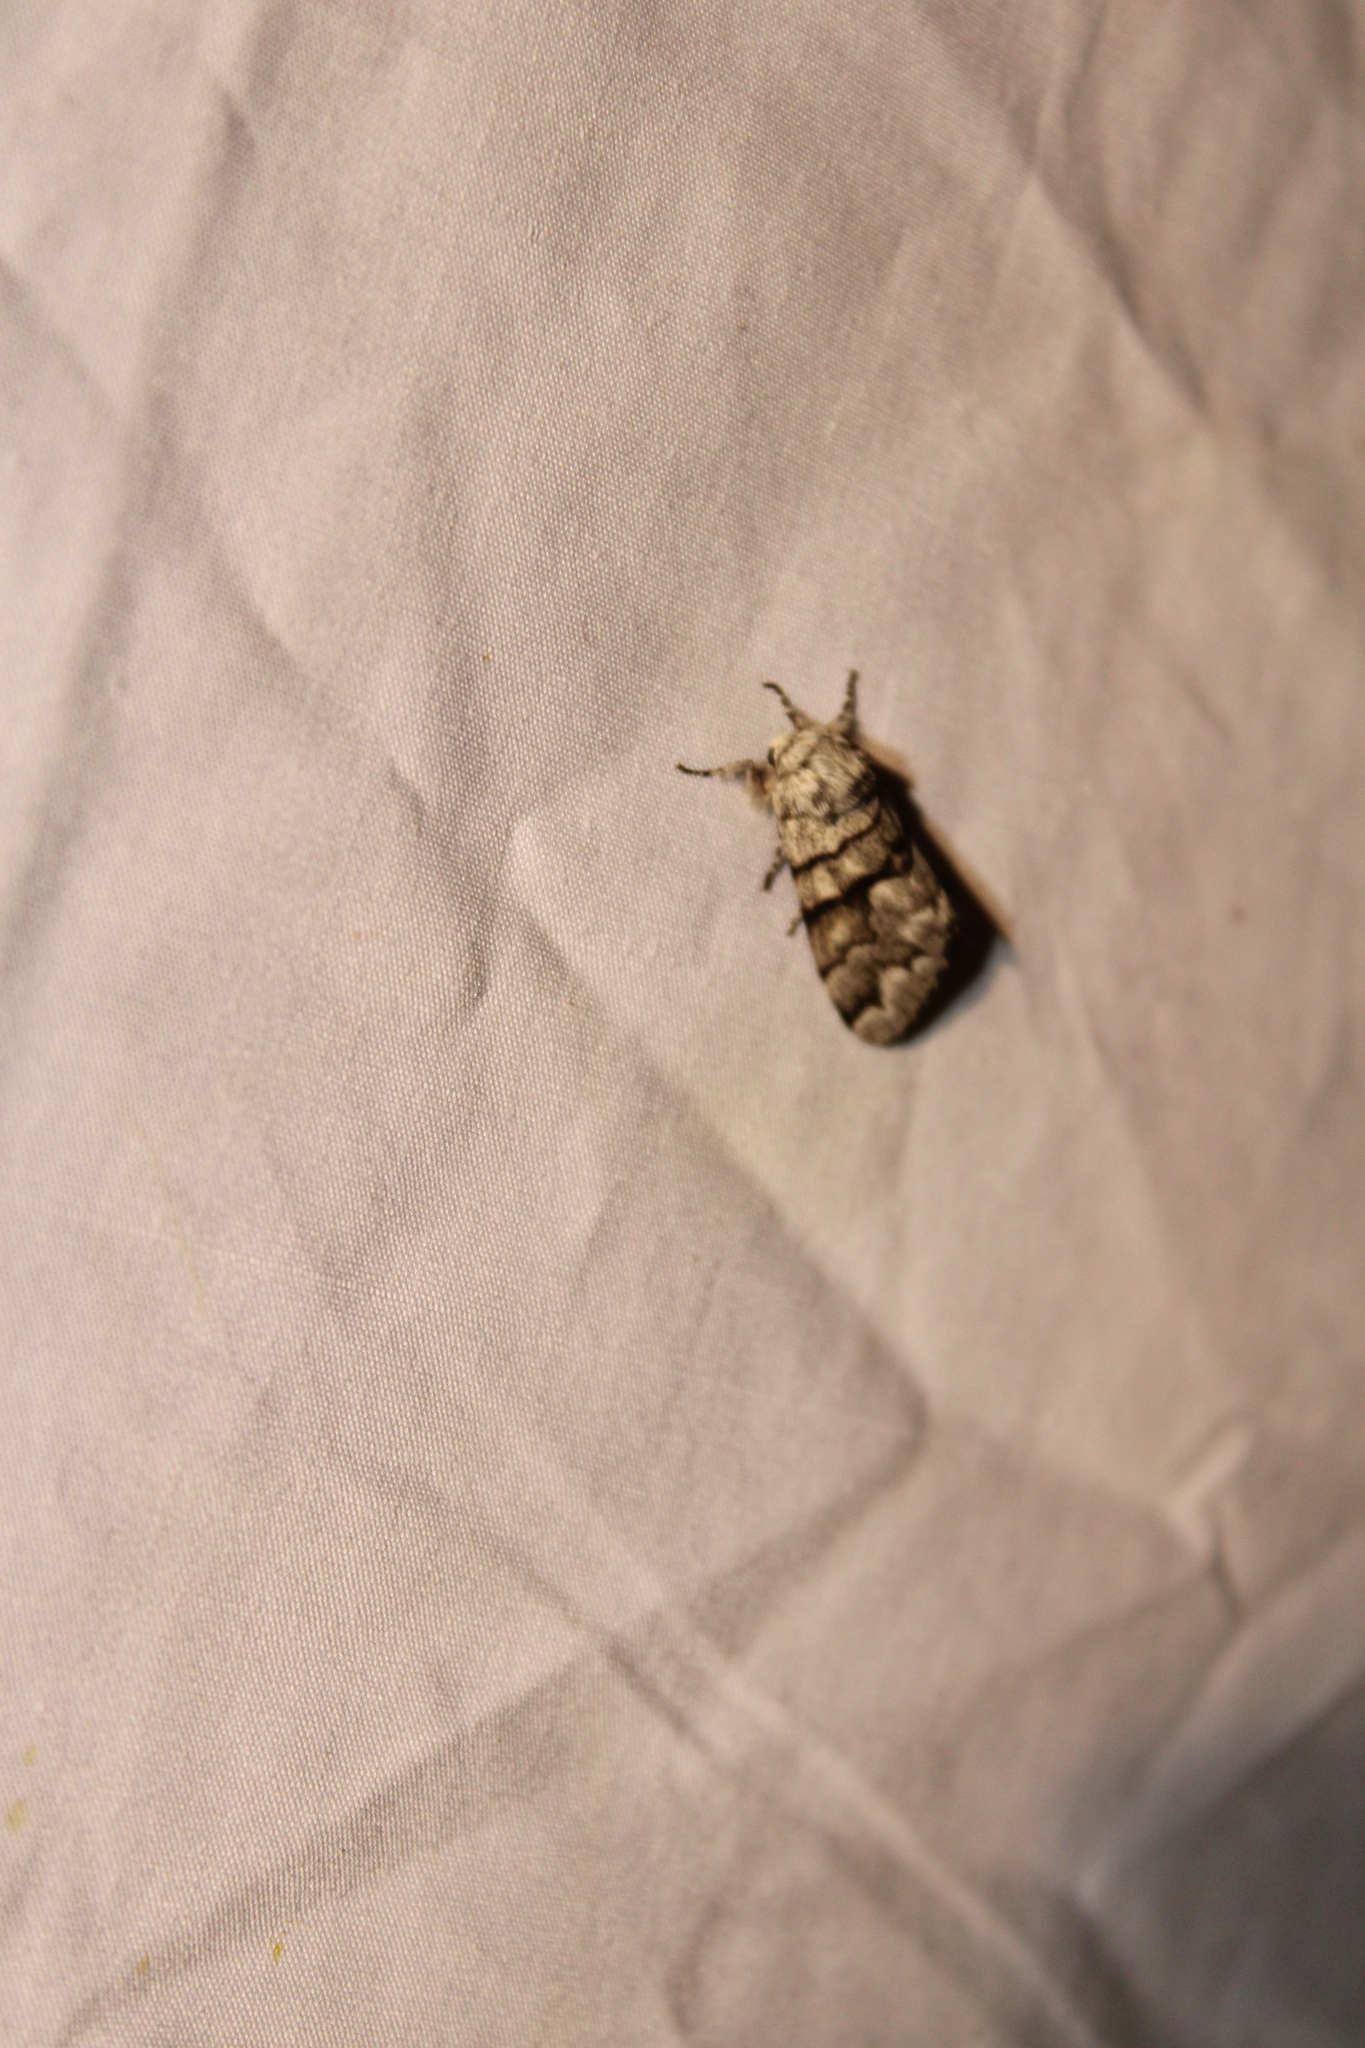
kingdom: Animalia
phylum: Arthropoda
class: Insecta
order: Lepidoptera
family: Noctuidae
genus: Panthea
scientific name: Panthea furcilla
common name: Eastern panthea moth
